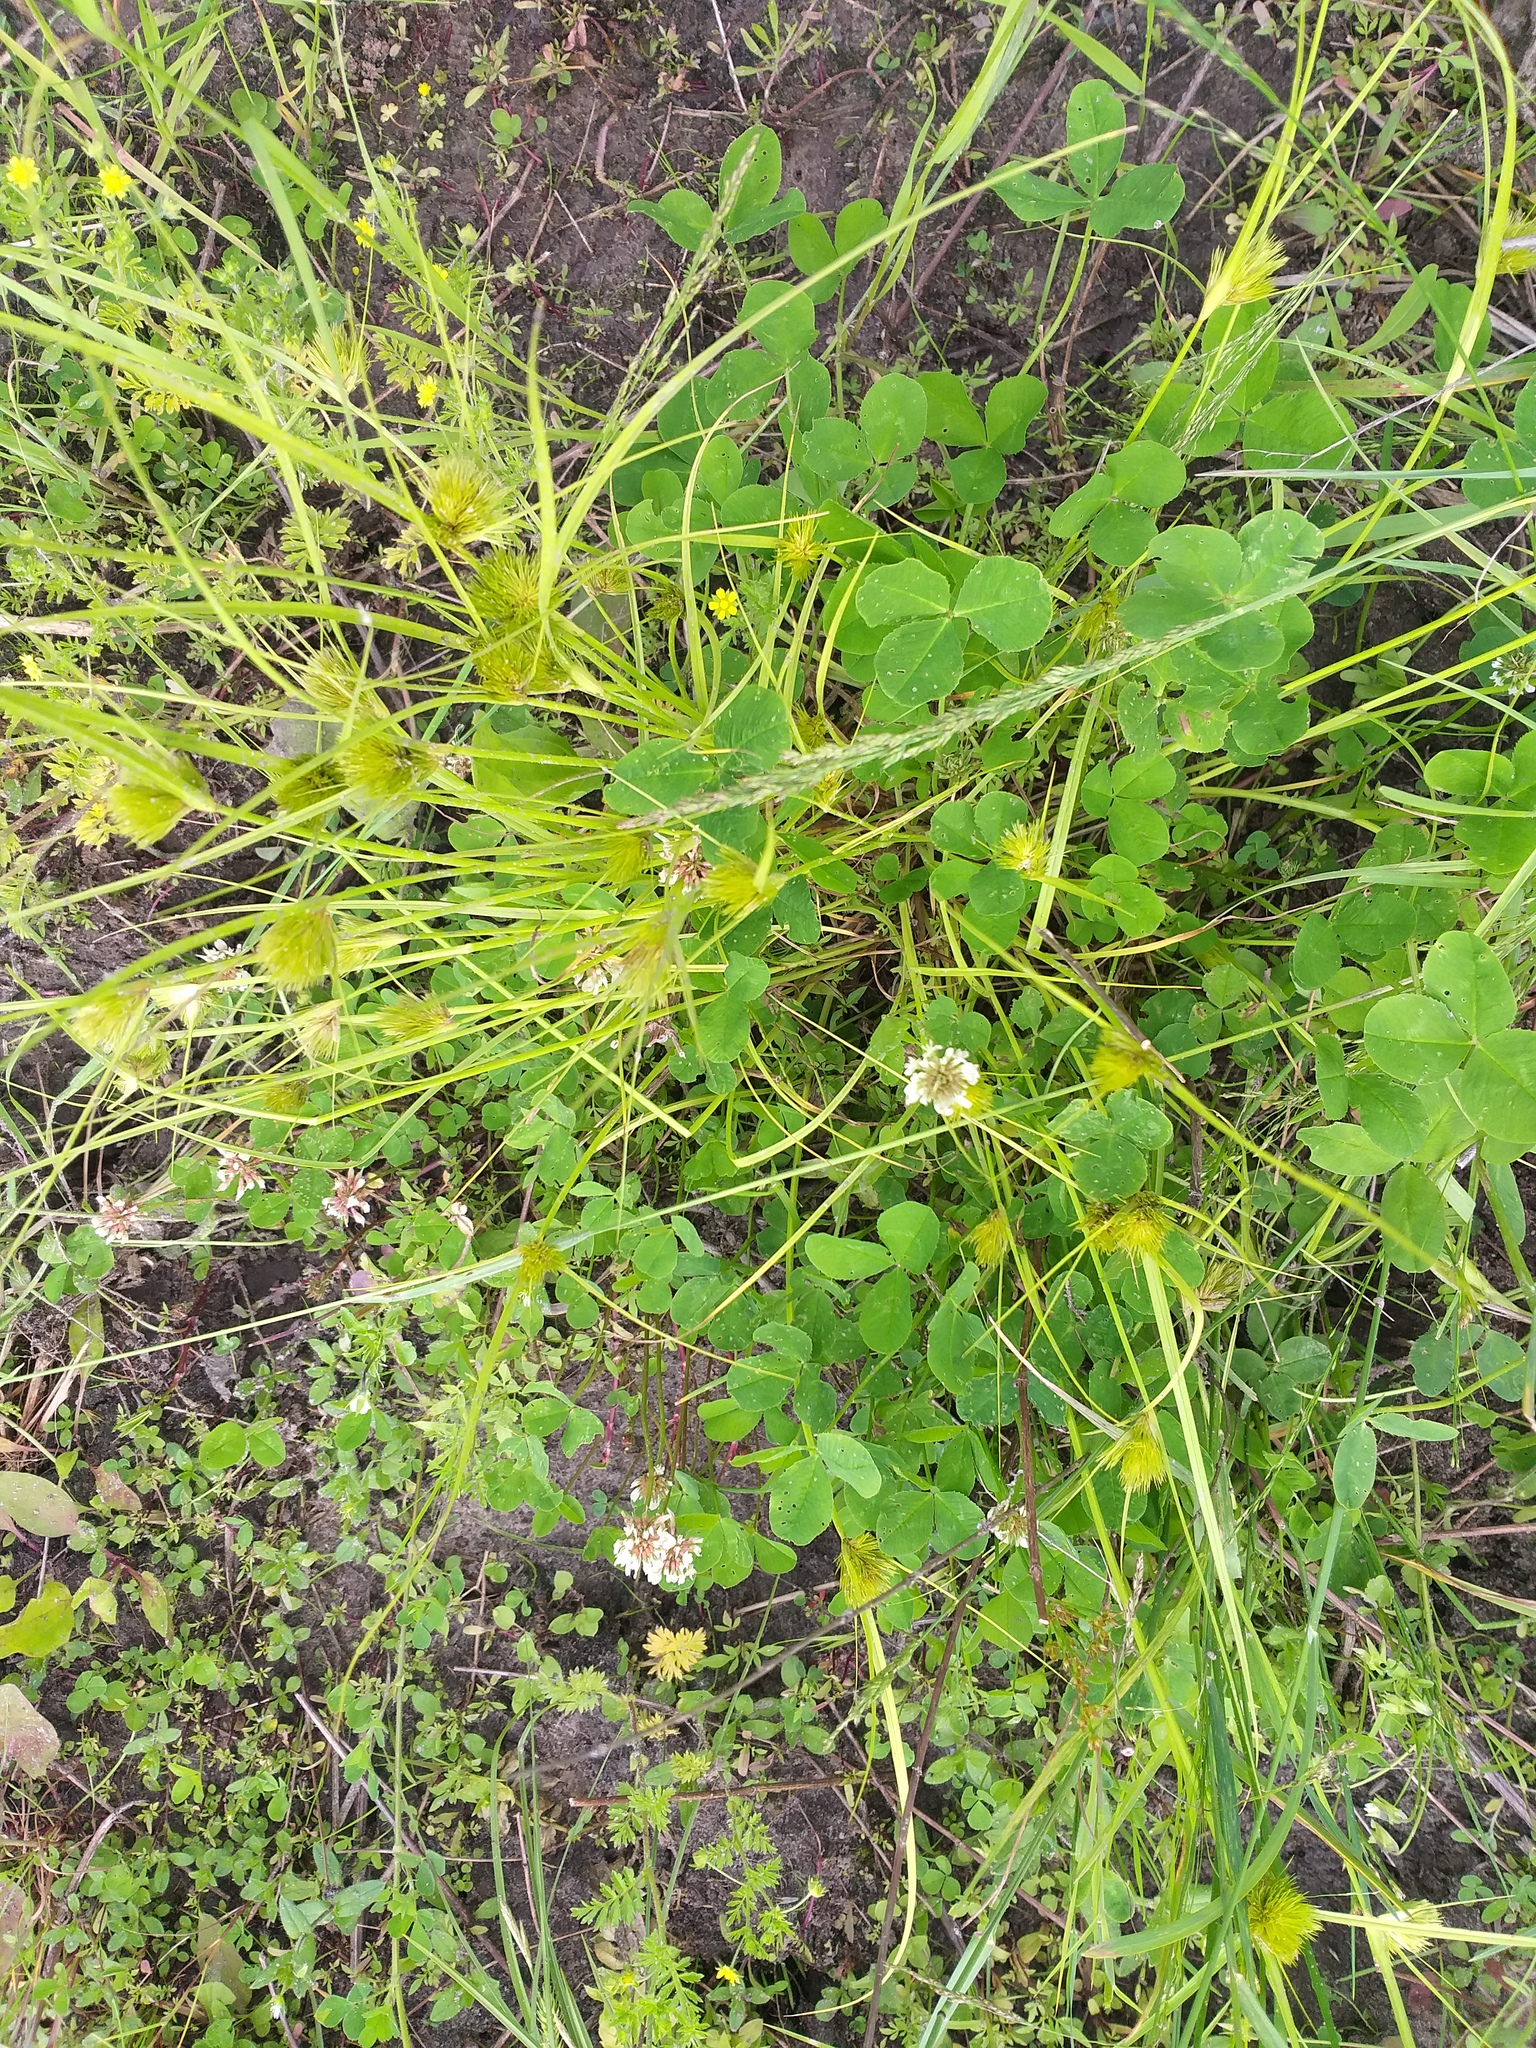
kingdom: Plantae
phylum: Tracheophyta
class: Magnoliopsida
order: Fabales
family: Fabaceae
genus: Trifolium
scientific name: Trifolium repens
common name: White clover
